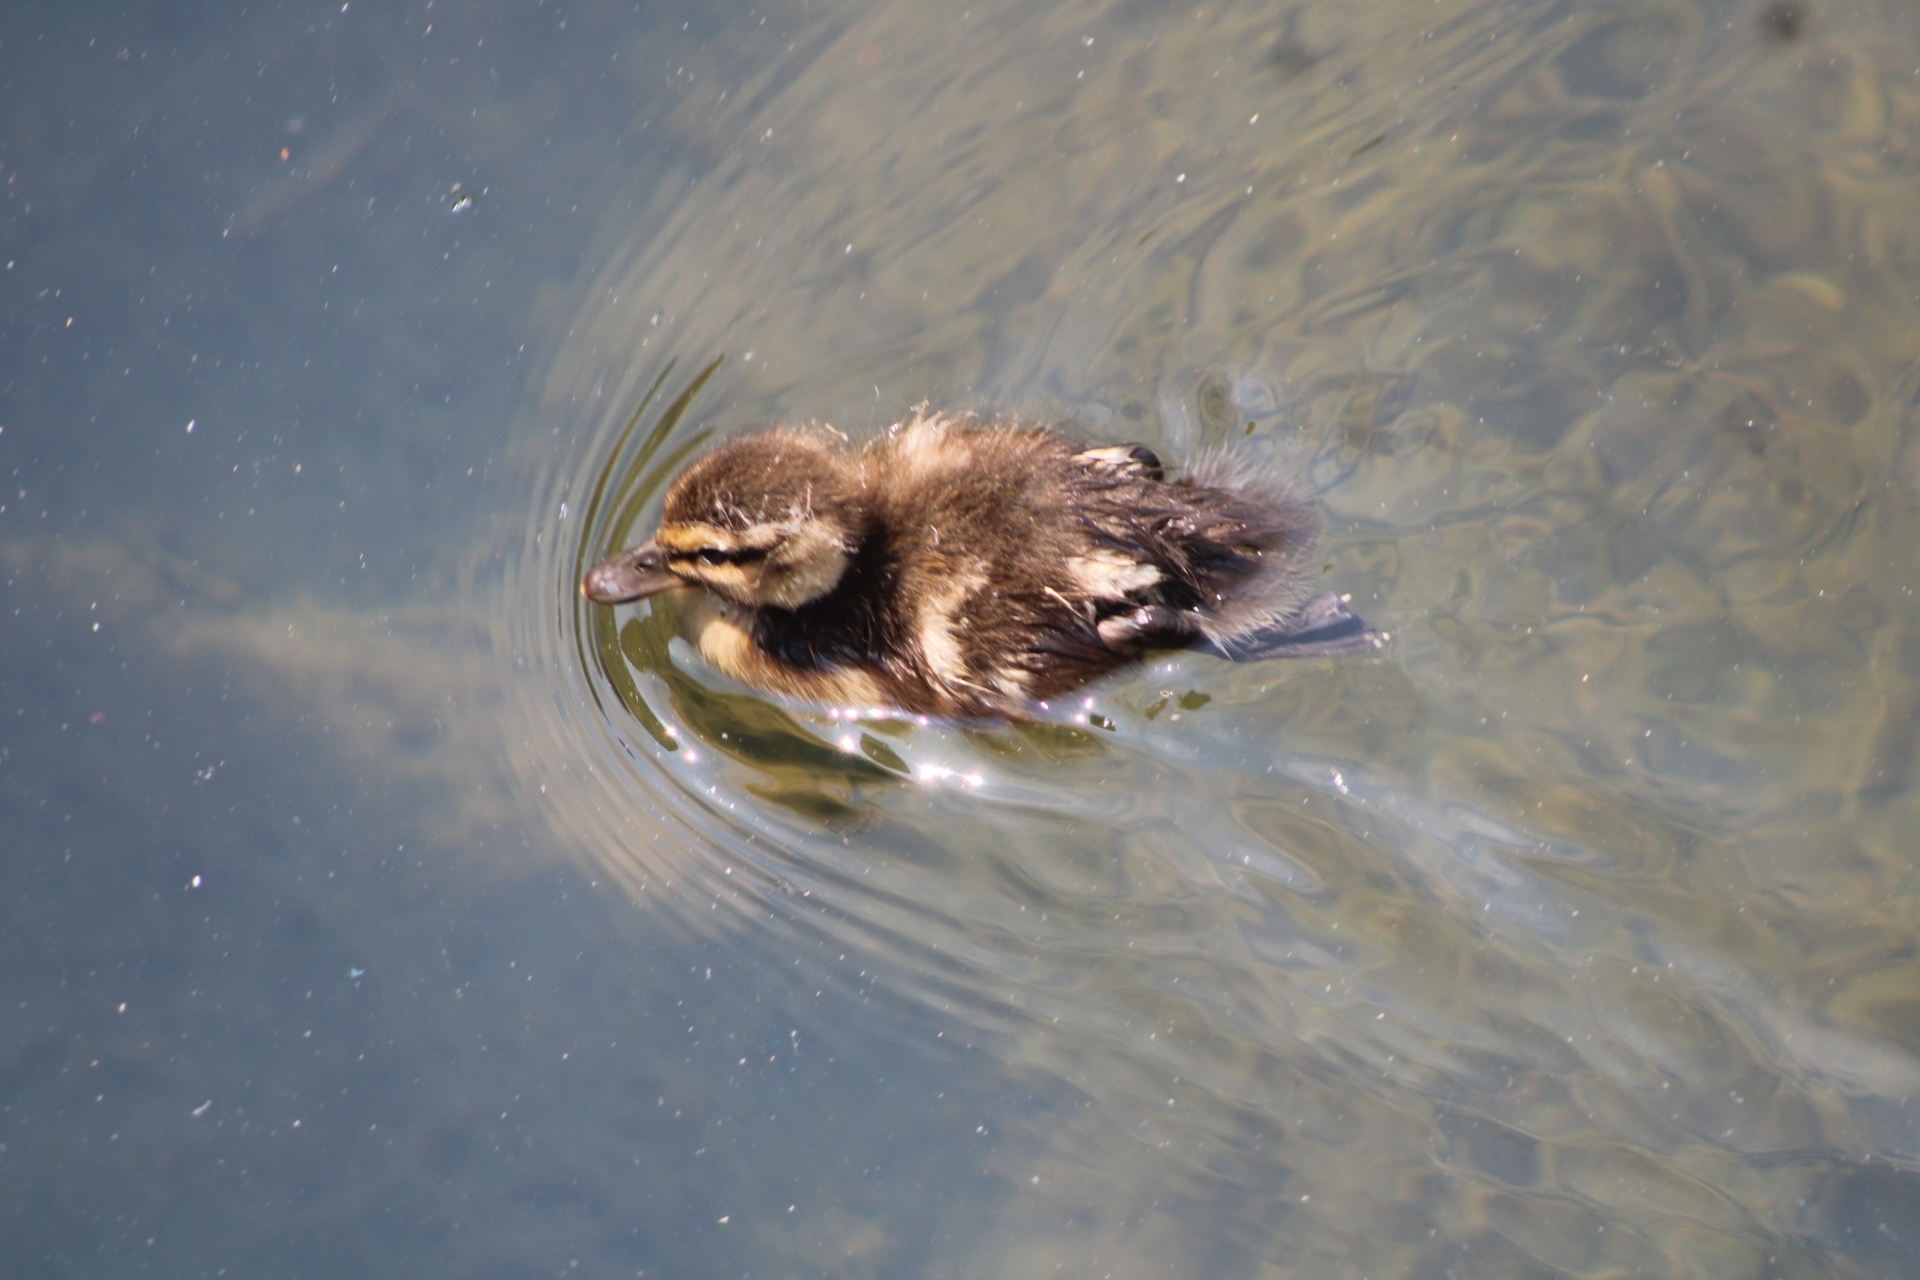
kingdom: Animalia
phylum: Chordata
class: Aves
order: Anseriformes
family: Anatidae
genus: Anas
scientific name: Anas platyrhynchos
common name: Mallard
